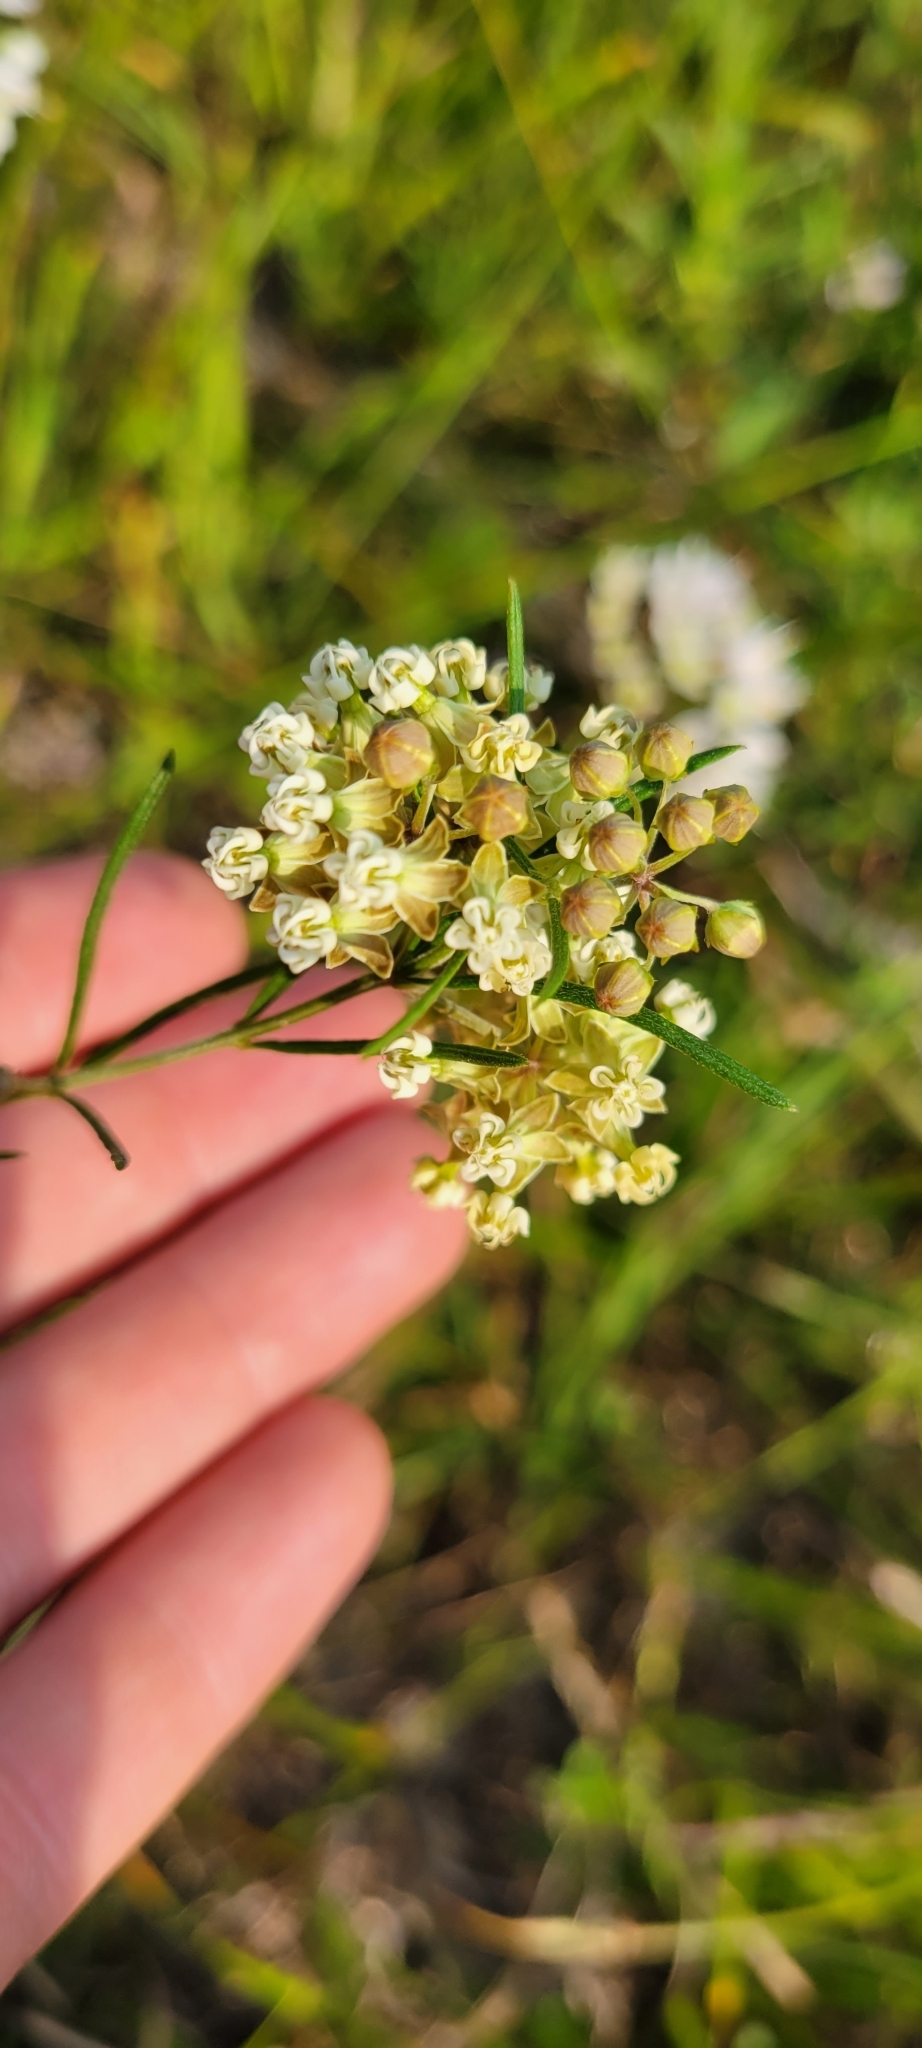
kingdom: Plantae
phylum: Tracheophyta
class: Magnoliopsida
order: Gentianales
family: Apocynaceae
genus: Asclepias
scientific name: Asclepias verticillata
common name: Eastern whorled milkweed
